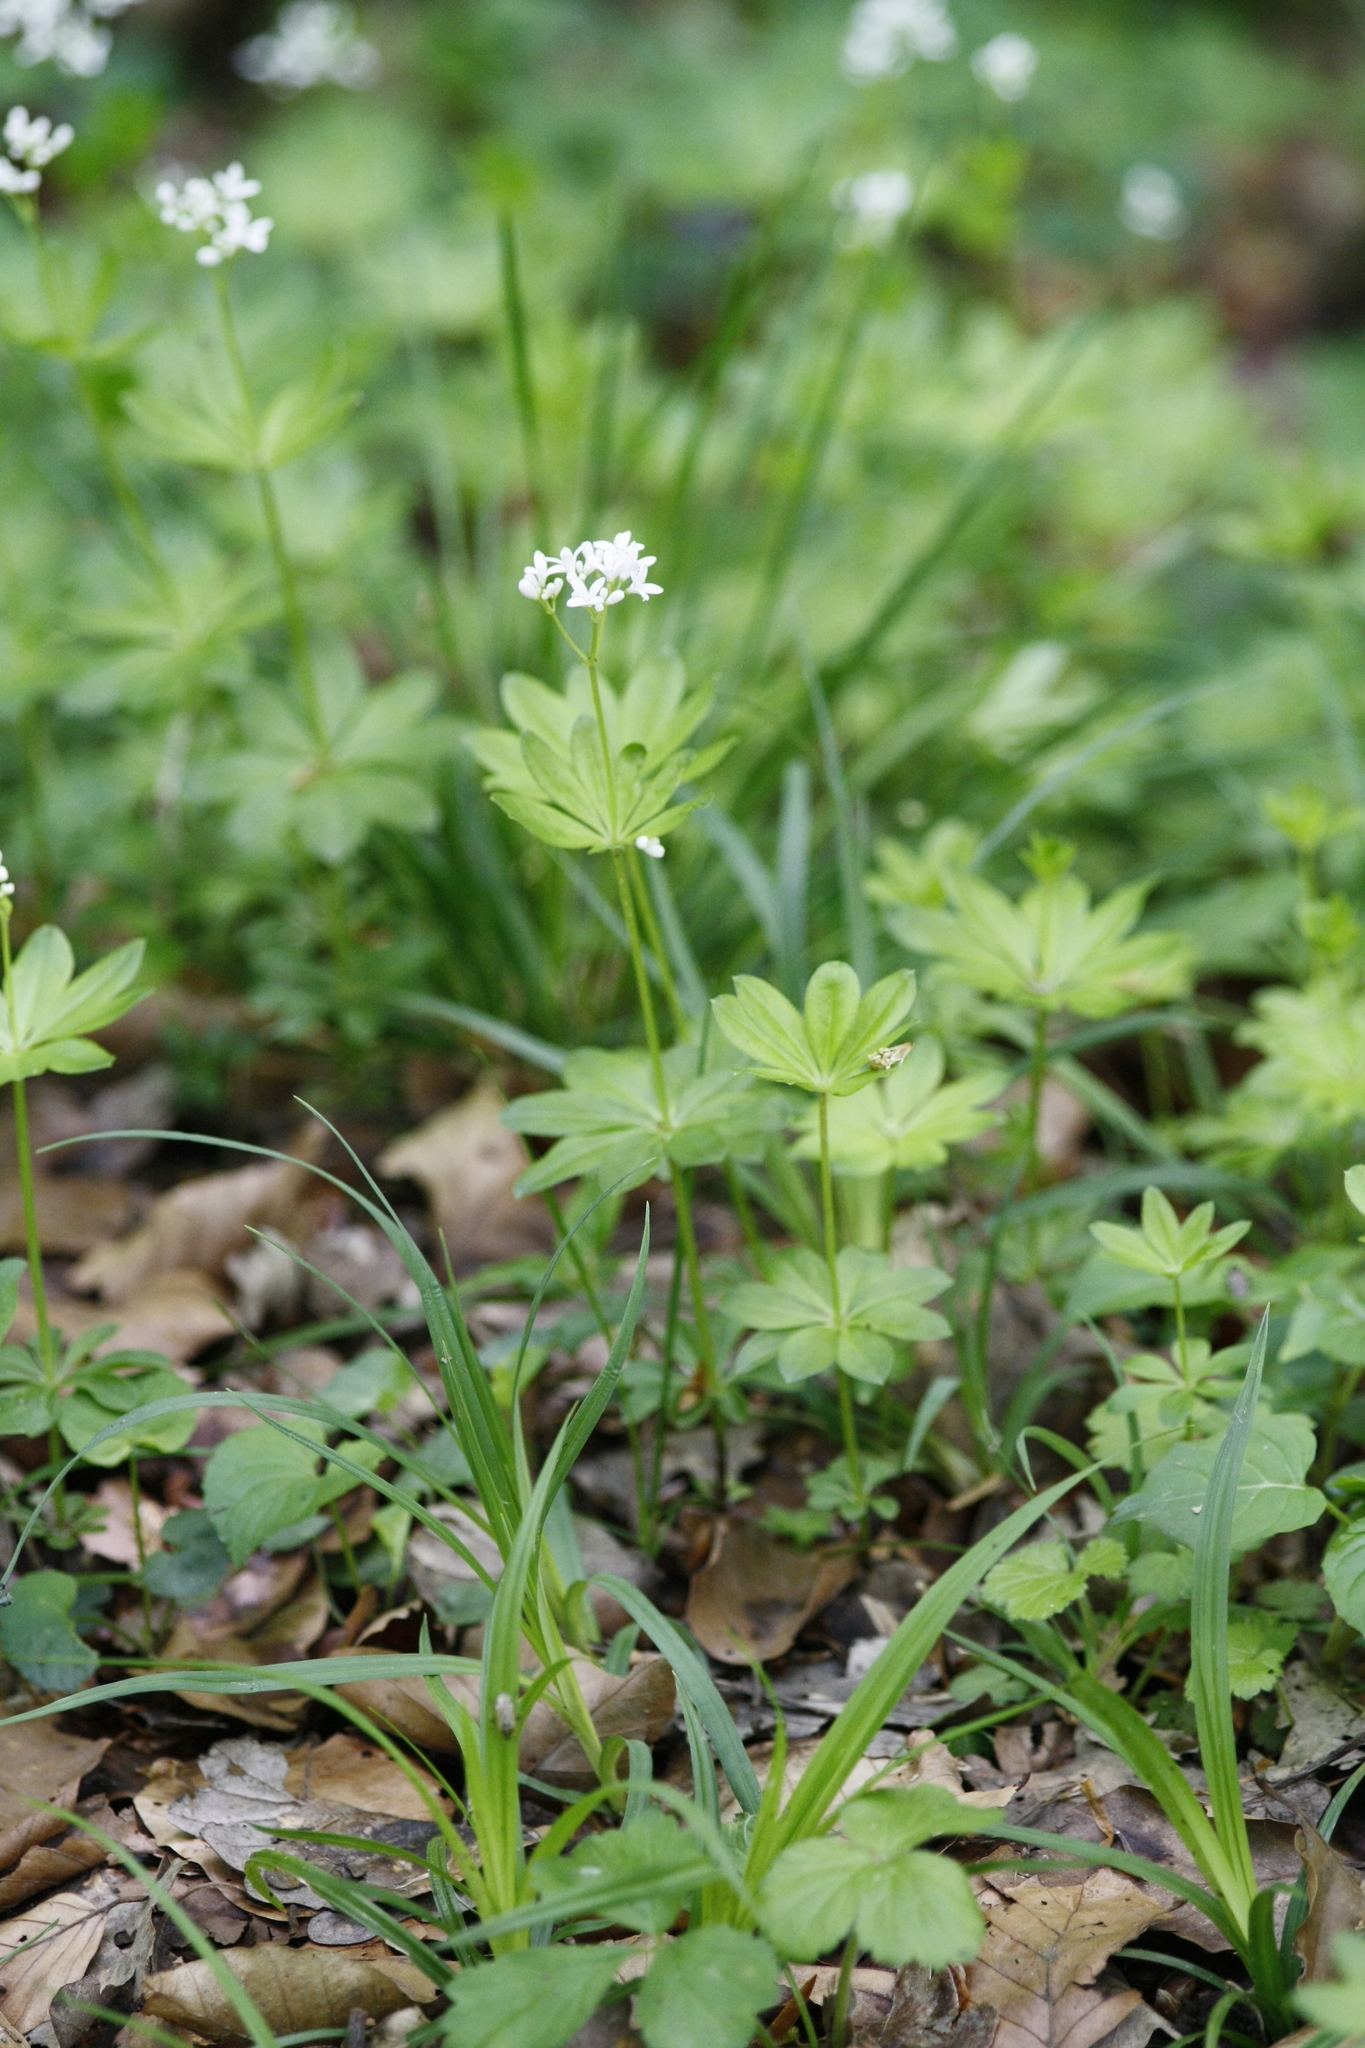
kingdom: Plantae
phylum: Tracheophyta
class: Magnoliopsida
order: Gentianales
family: Rubiaceae
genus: Galium
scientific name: Galium odoratum
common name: Sweet woodruff
